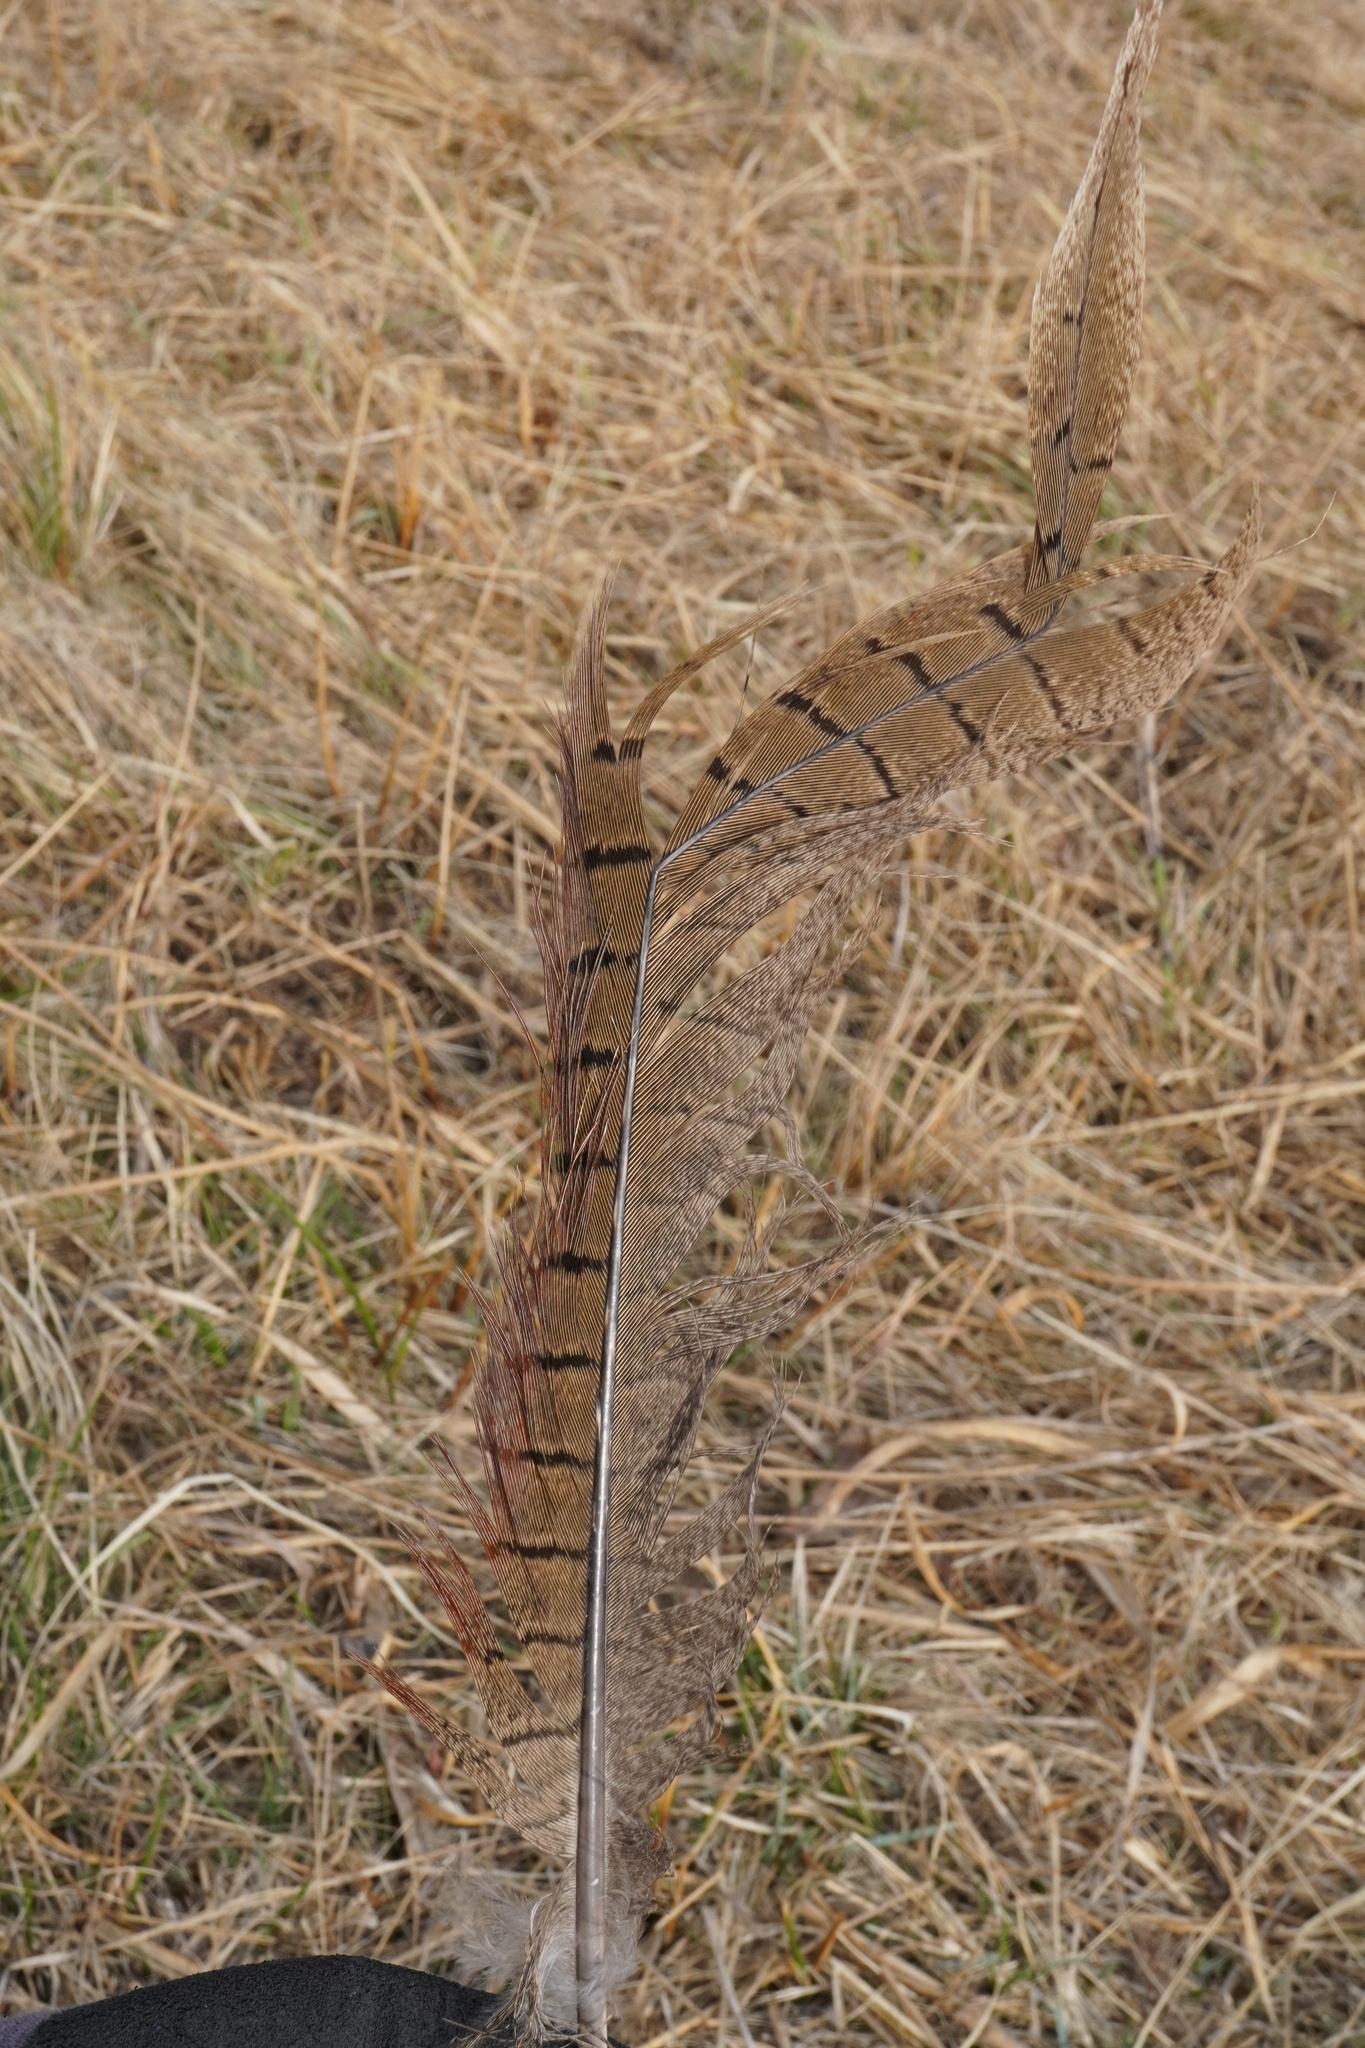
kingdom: Animalia
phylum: Chordata
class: Aves
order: Galliformes
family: Phasianidae
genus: Phasianus
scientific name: Phasianus colchicus
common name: Common pheasant
